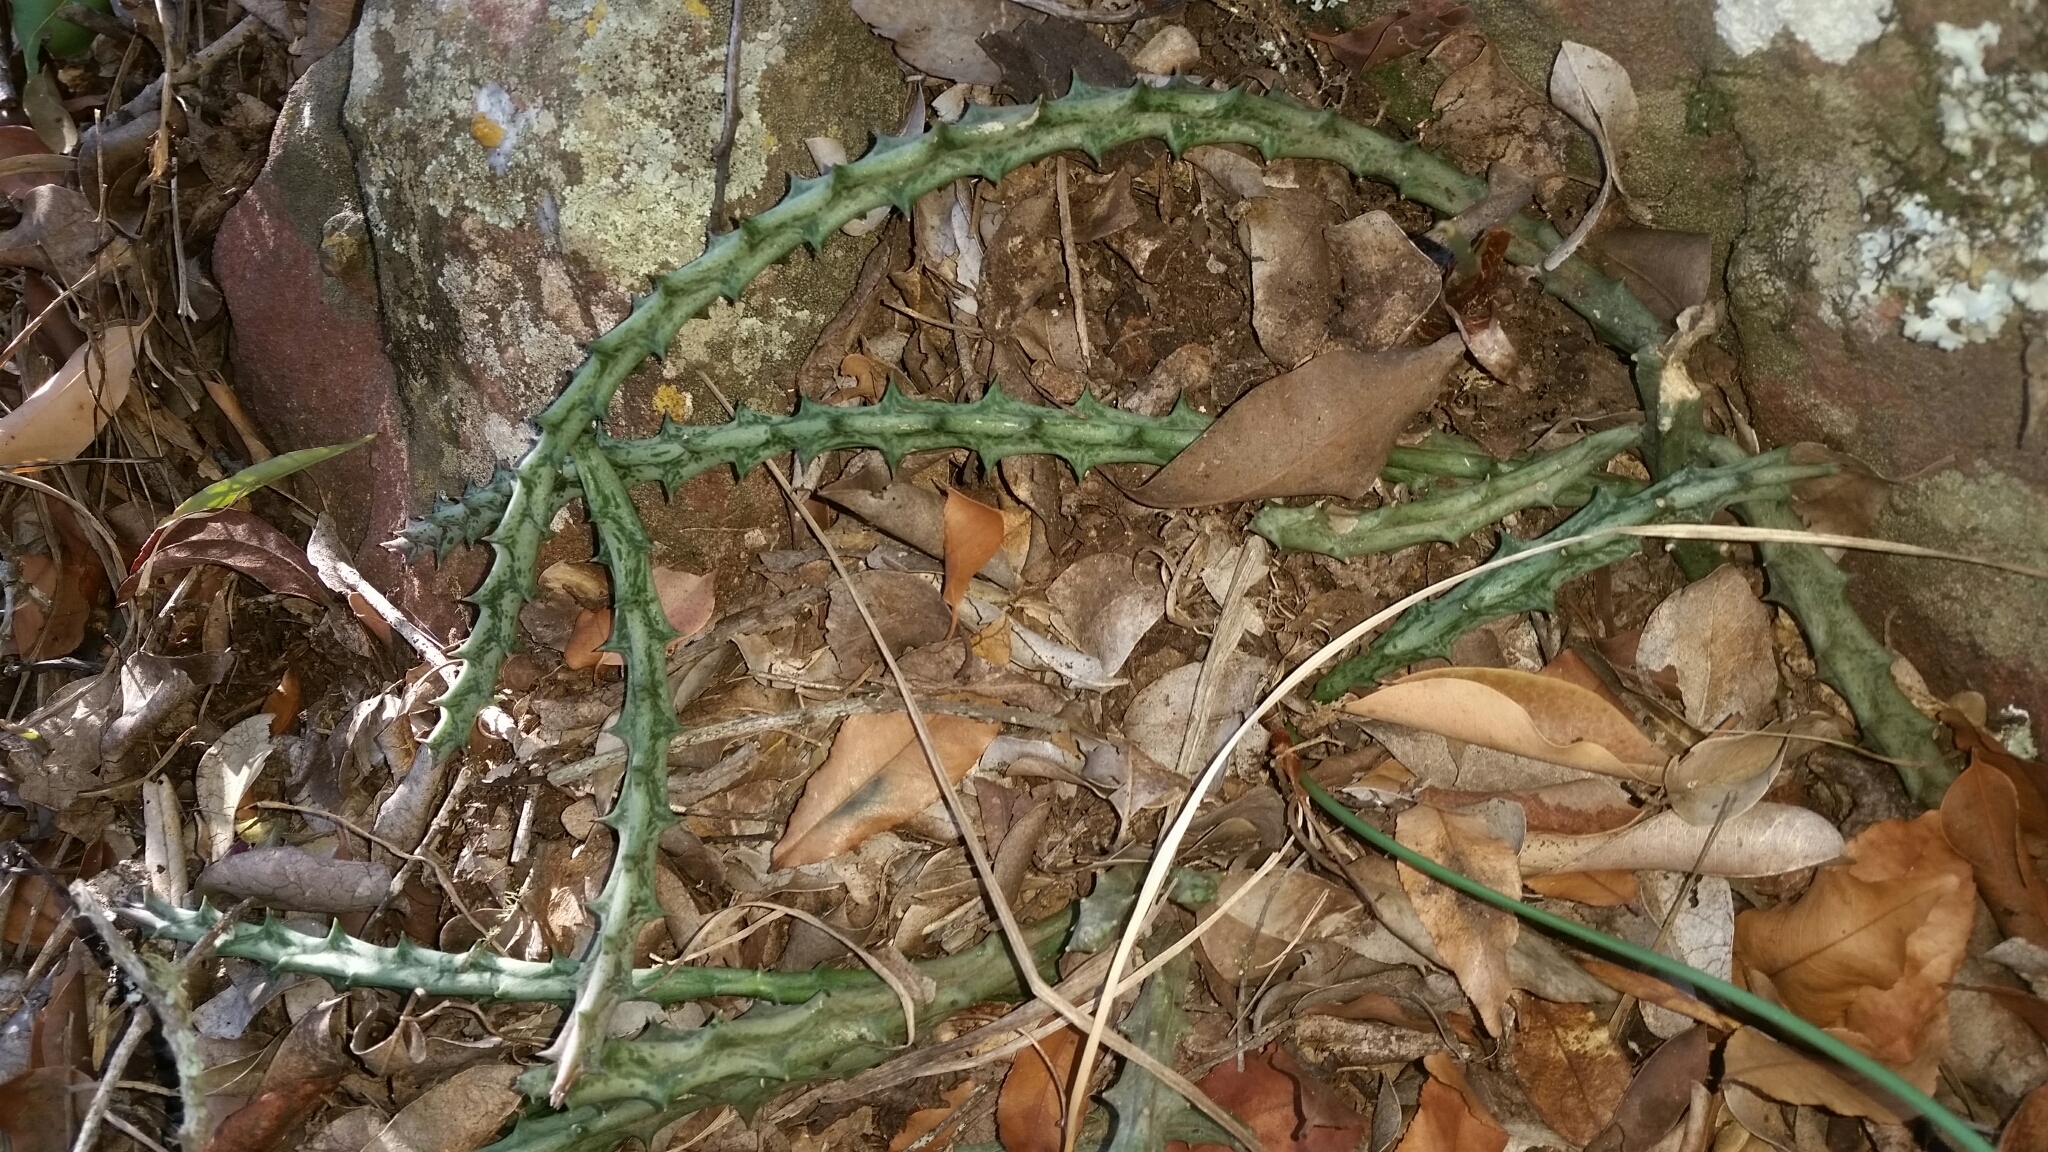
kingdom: Plantae
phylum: Tracheophyta
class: Magnoliopsida
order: Gentianales
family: Apocynaceae
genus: Ceropegia
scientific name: Ceropegia conjuncta
